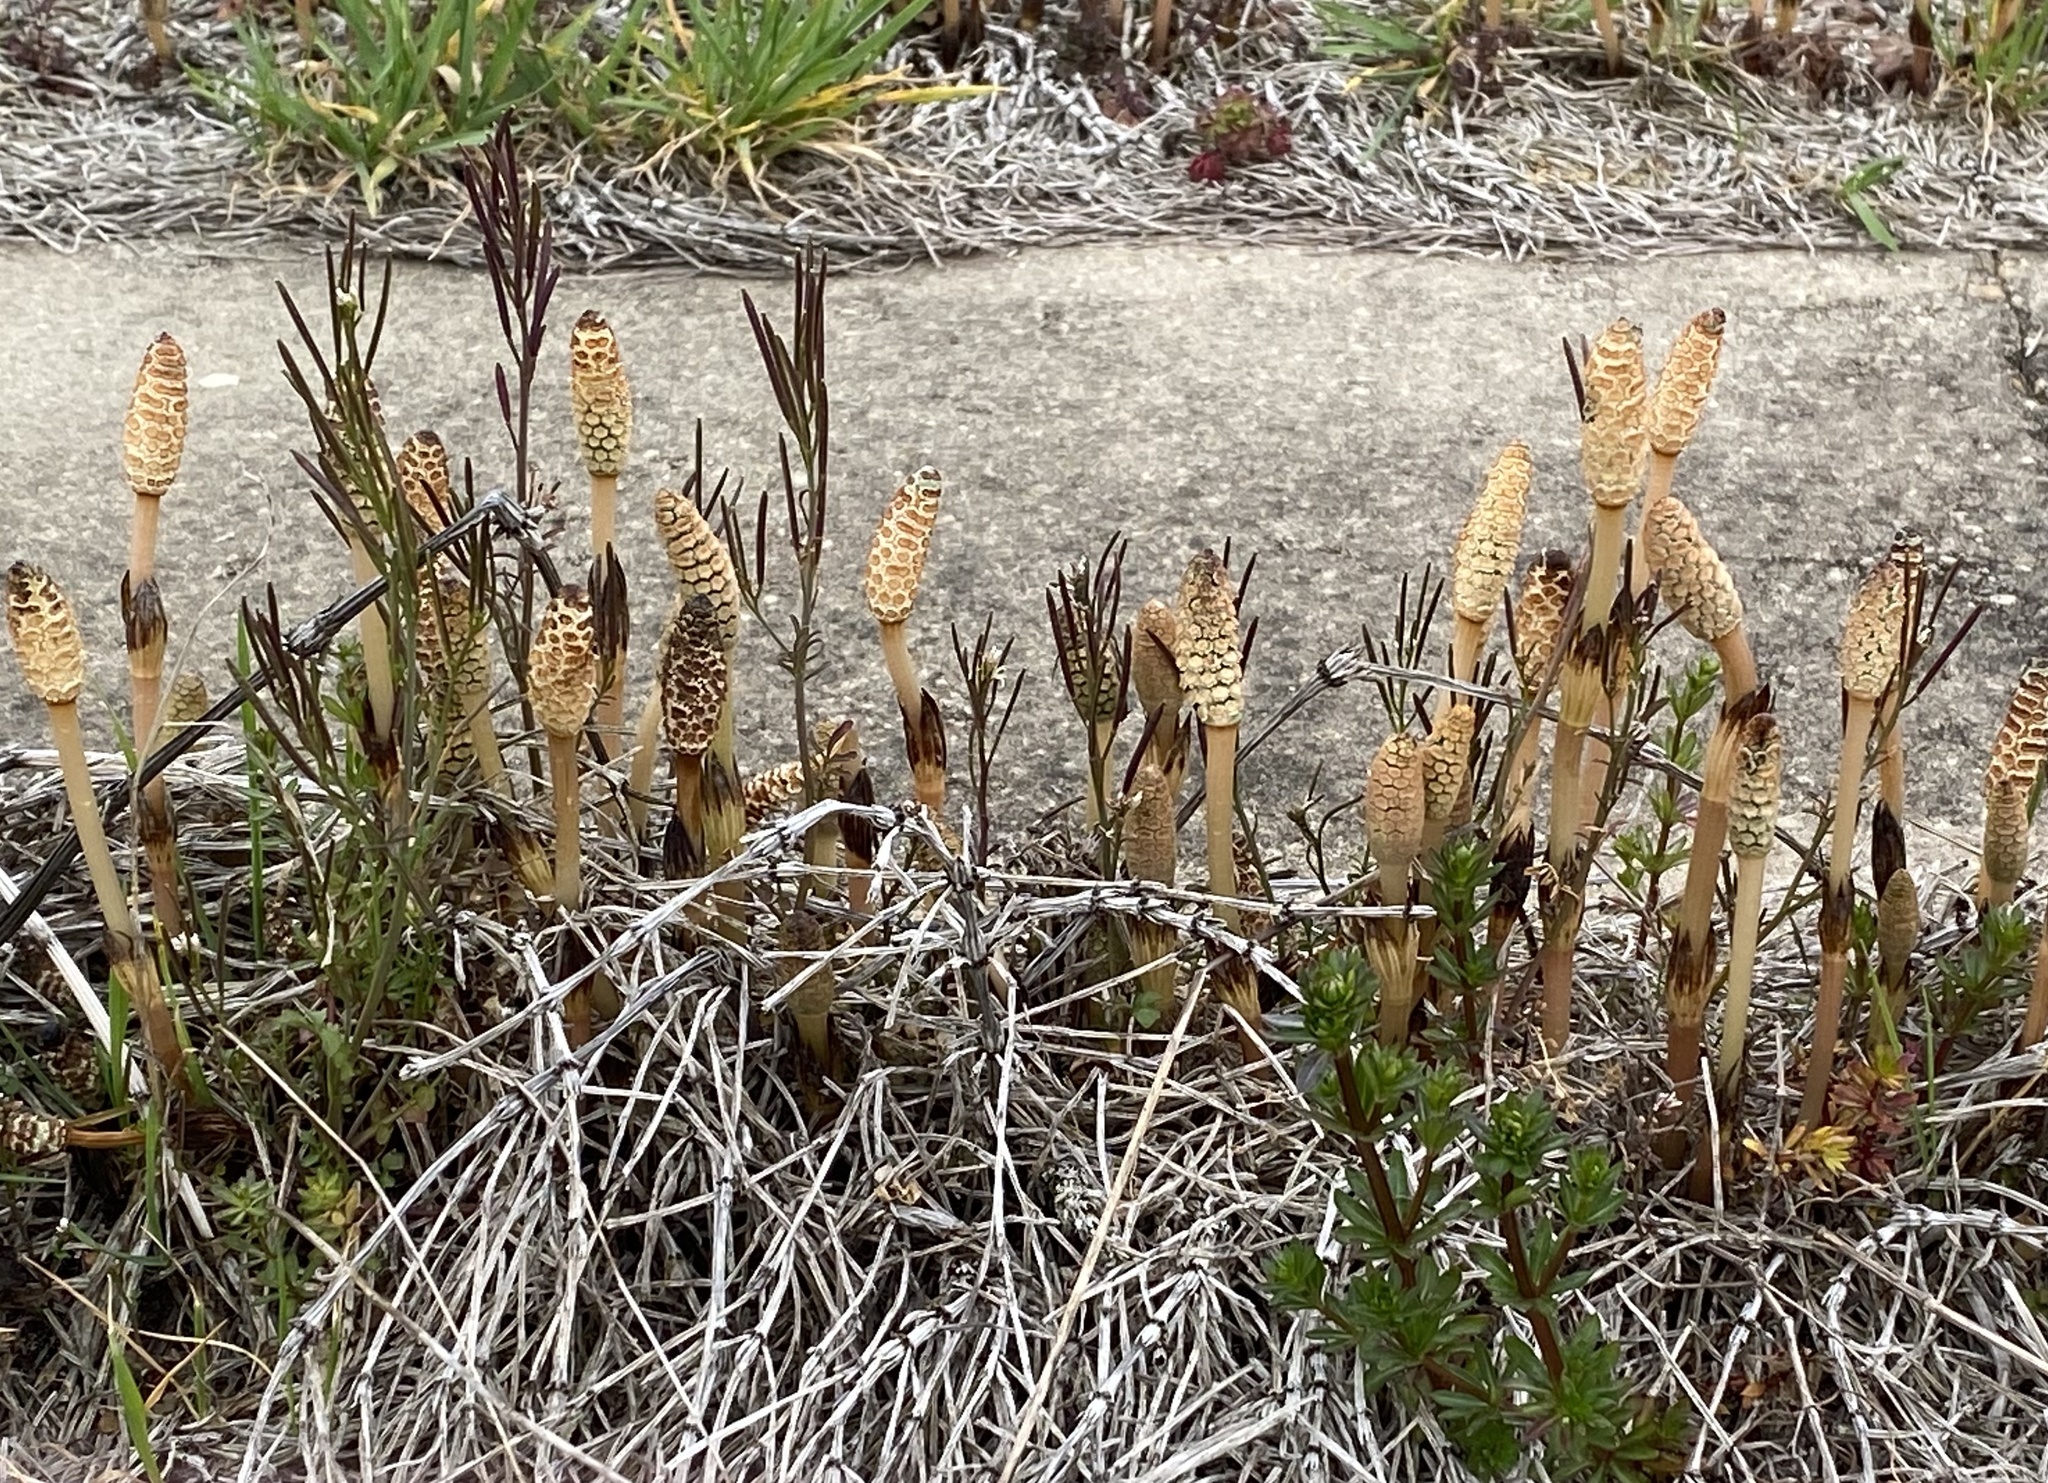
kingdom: Plantae
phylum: Tracheophyta
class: Polypodiopsida
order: Equisetales
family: Equisetaceae
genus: Equisetum
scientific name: Equisetum arvense
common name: Field horsetail
